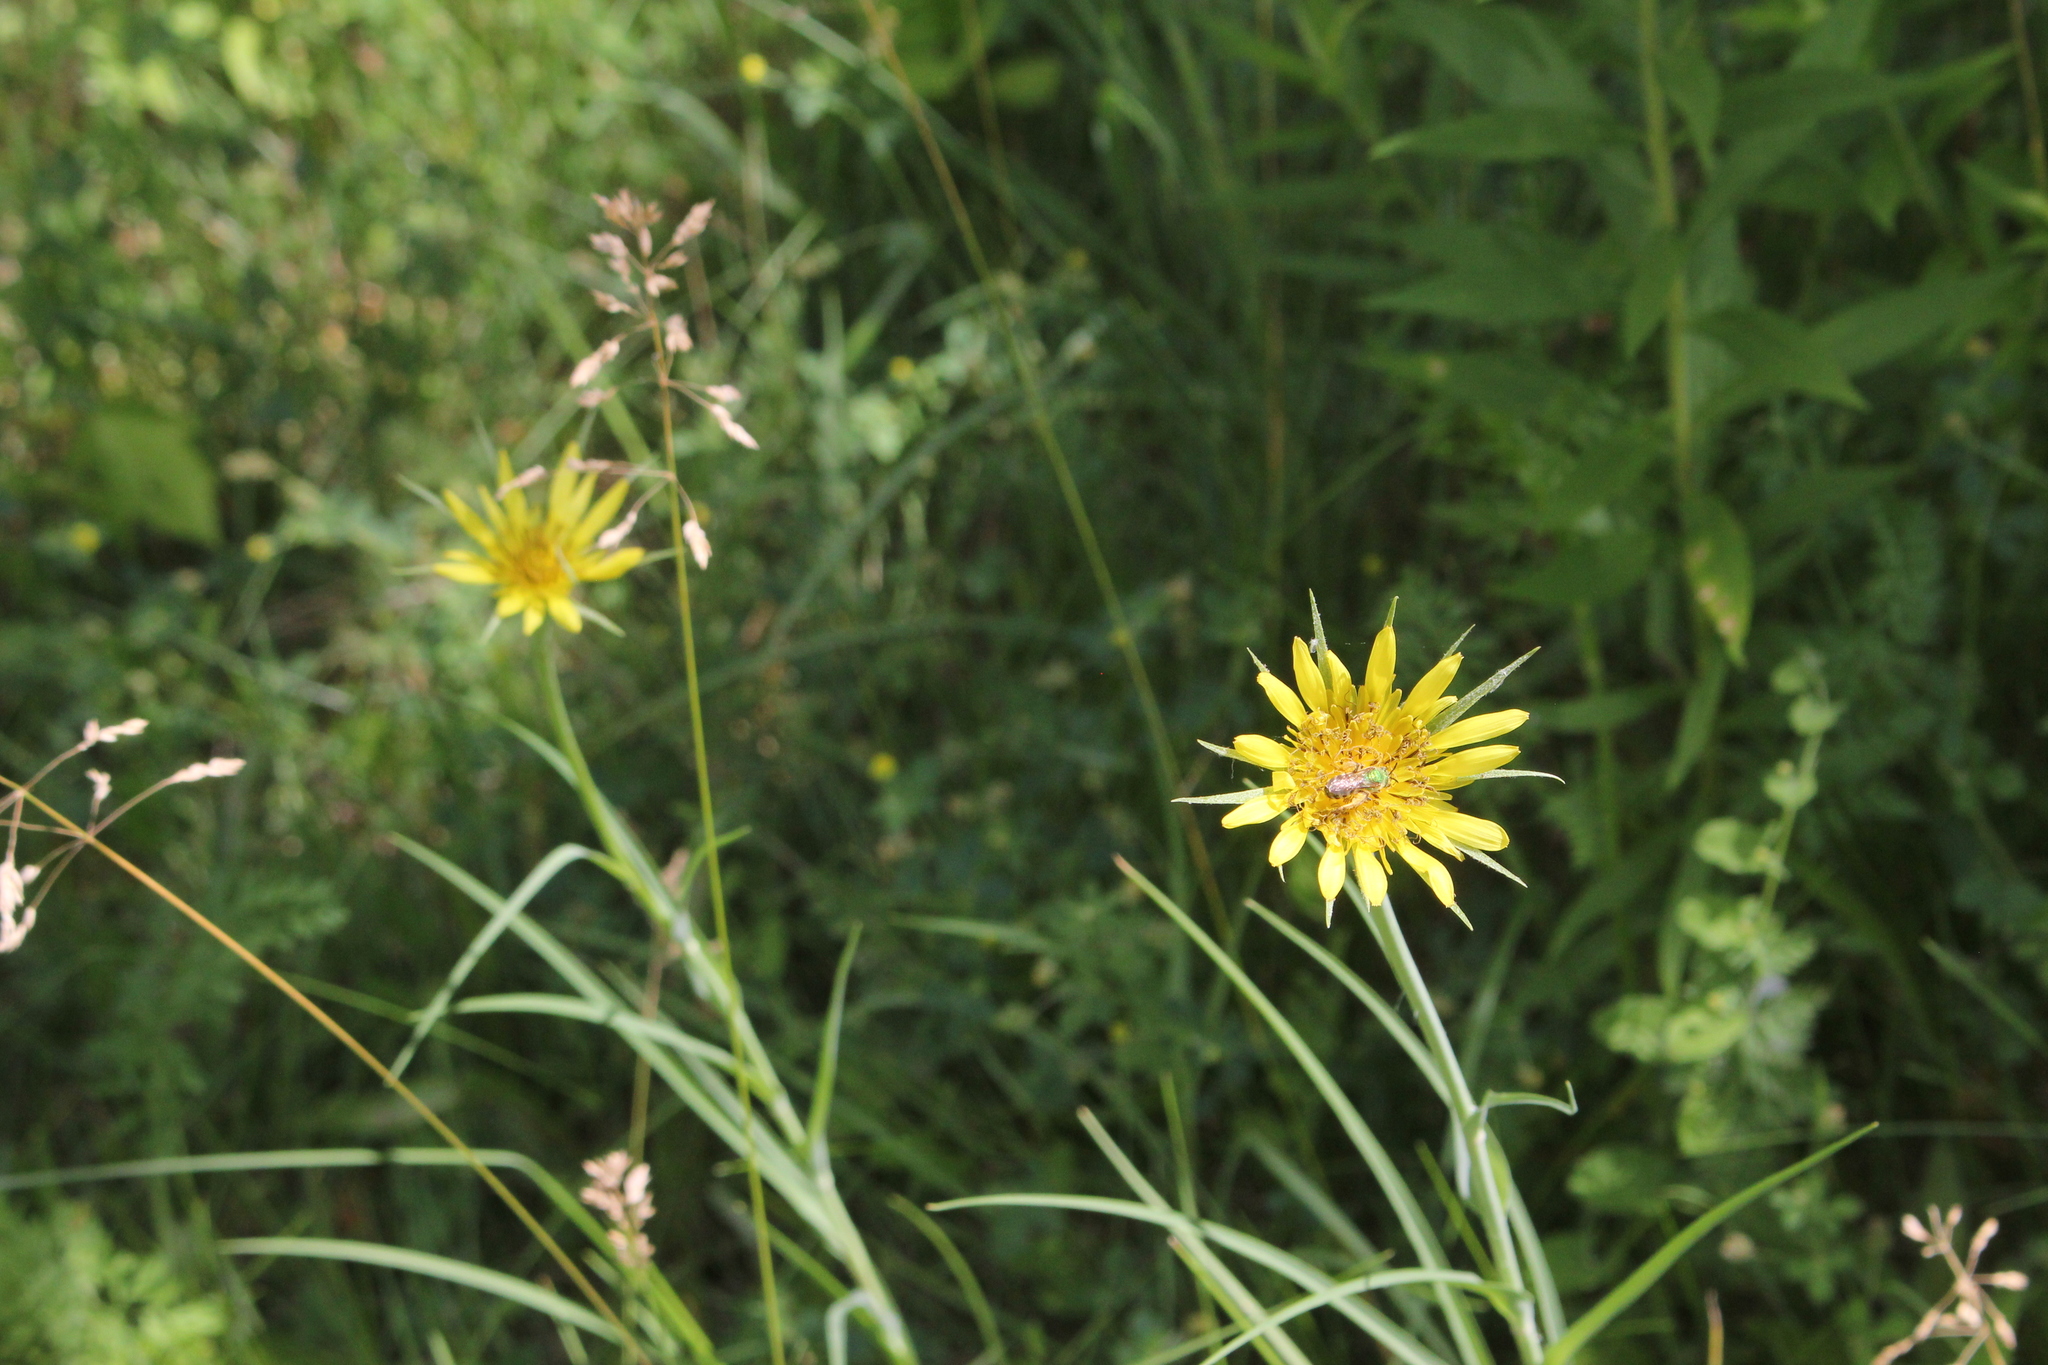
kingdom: Plantae
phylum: Tracheophyta
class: Magnoliopsida
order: Asterales
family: Asteraceae
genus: Tragopogon
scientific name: Tragopogon dubius
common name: Yellow salsify
